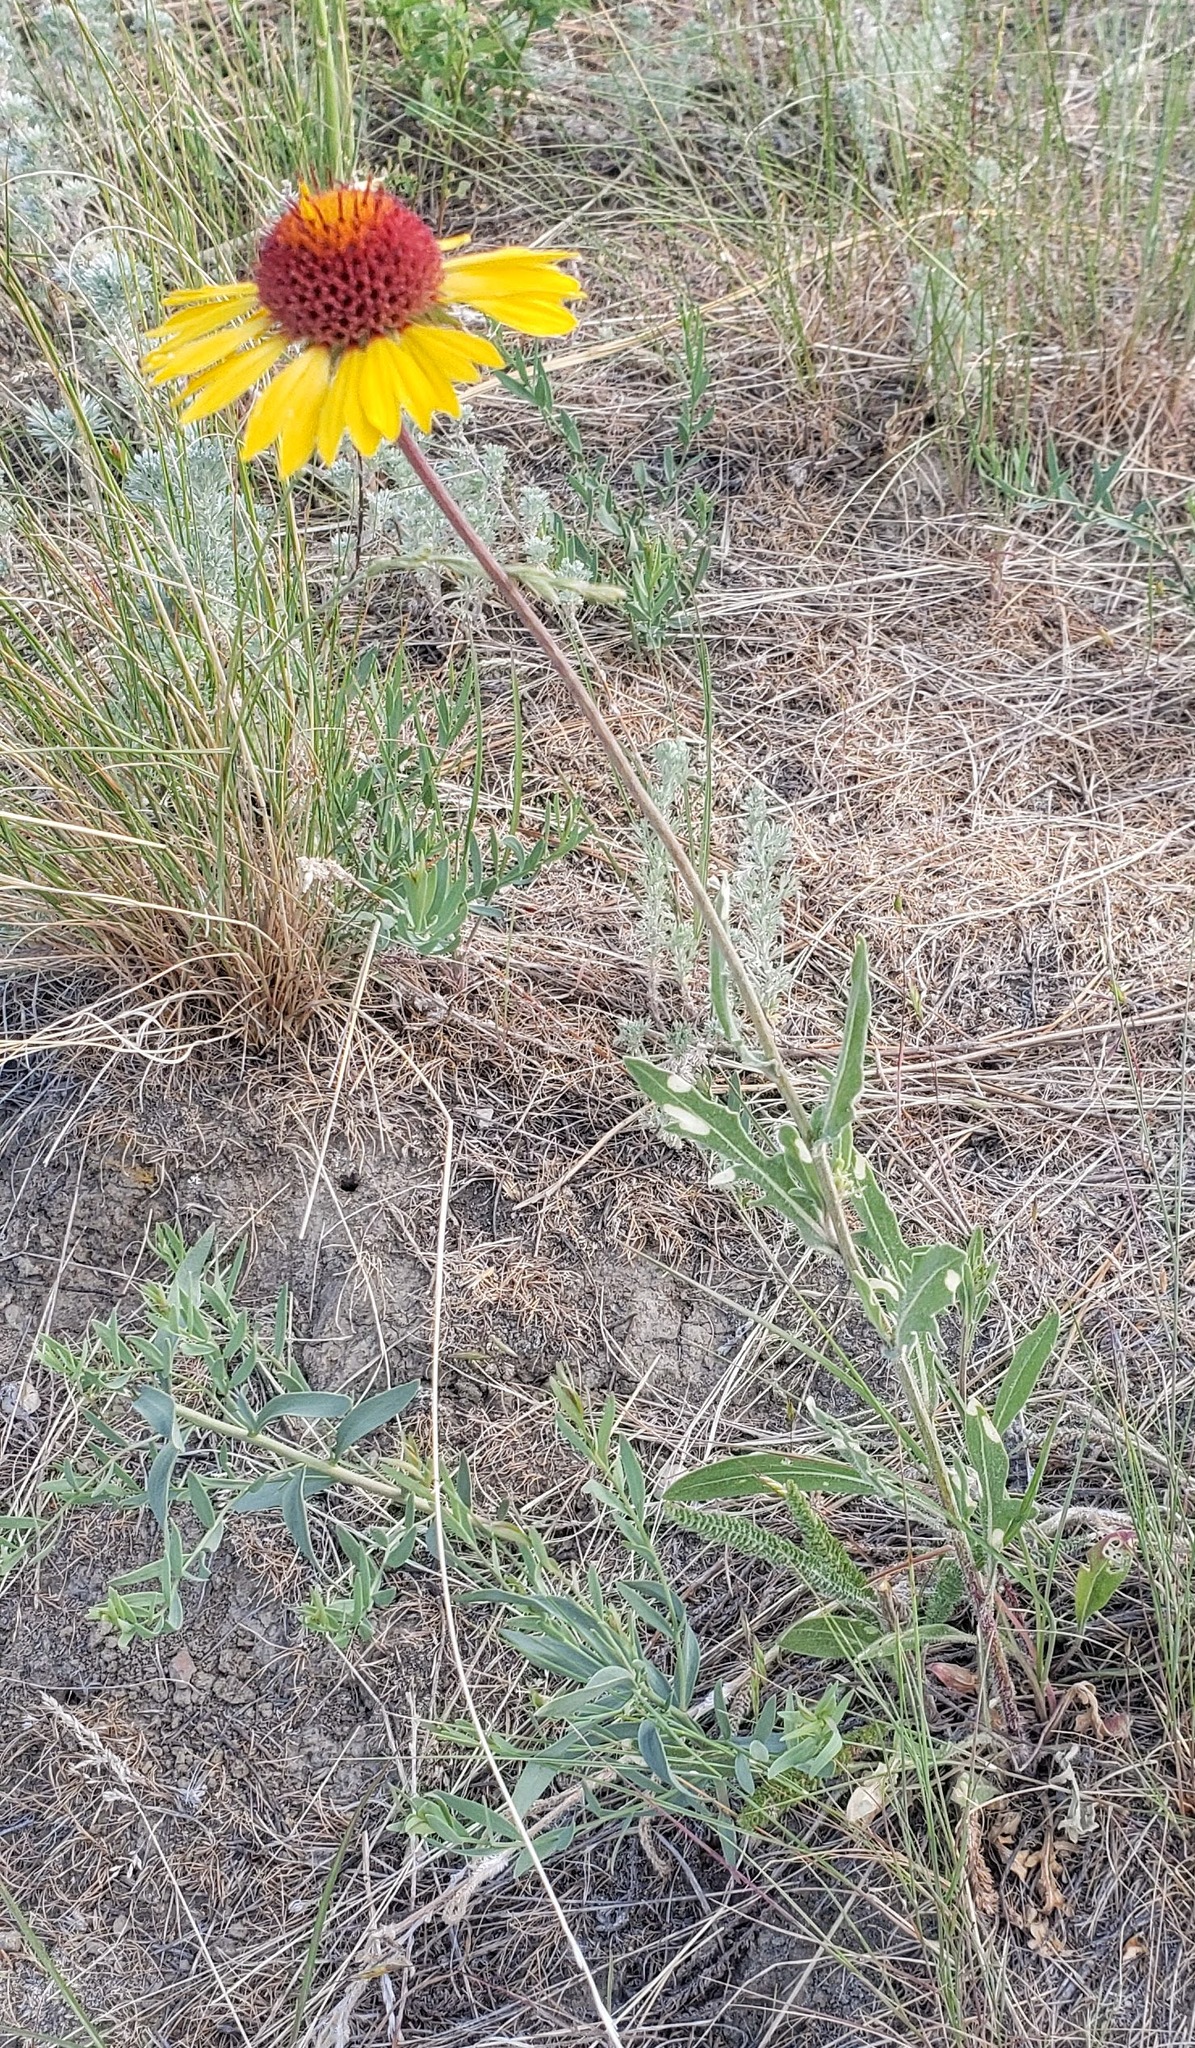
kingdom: Plantae
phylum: Tracheophyta
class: Magnoliopsida
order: Asterales
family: Asteraceae
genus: Gaillardia
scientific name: Gaillardia aristata
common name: Blanket-flower
